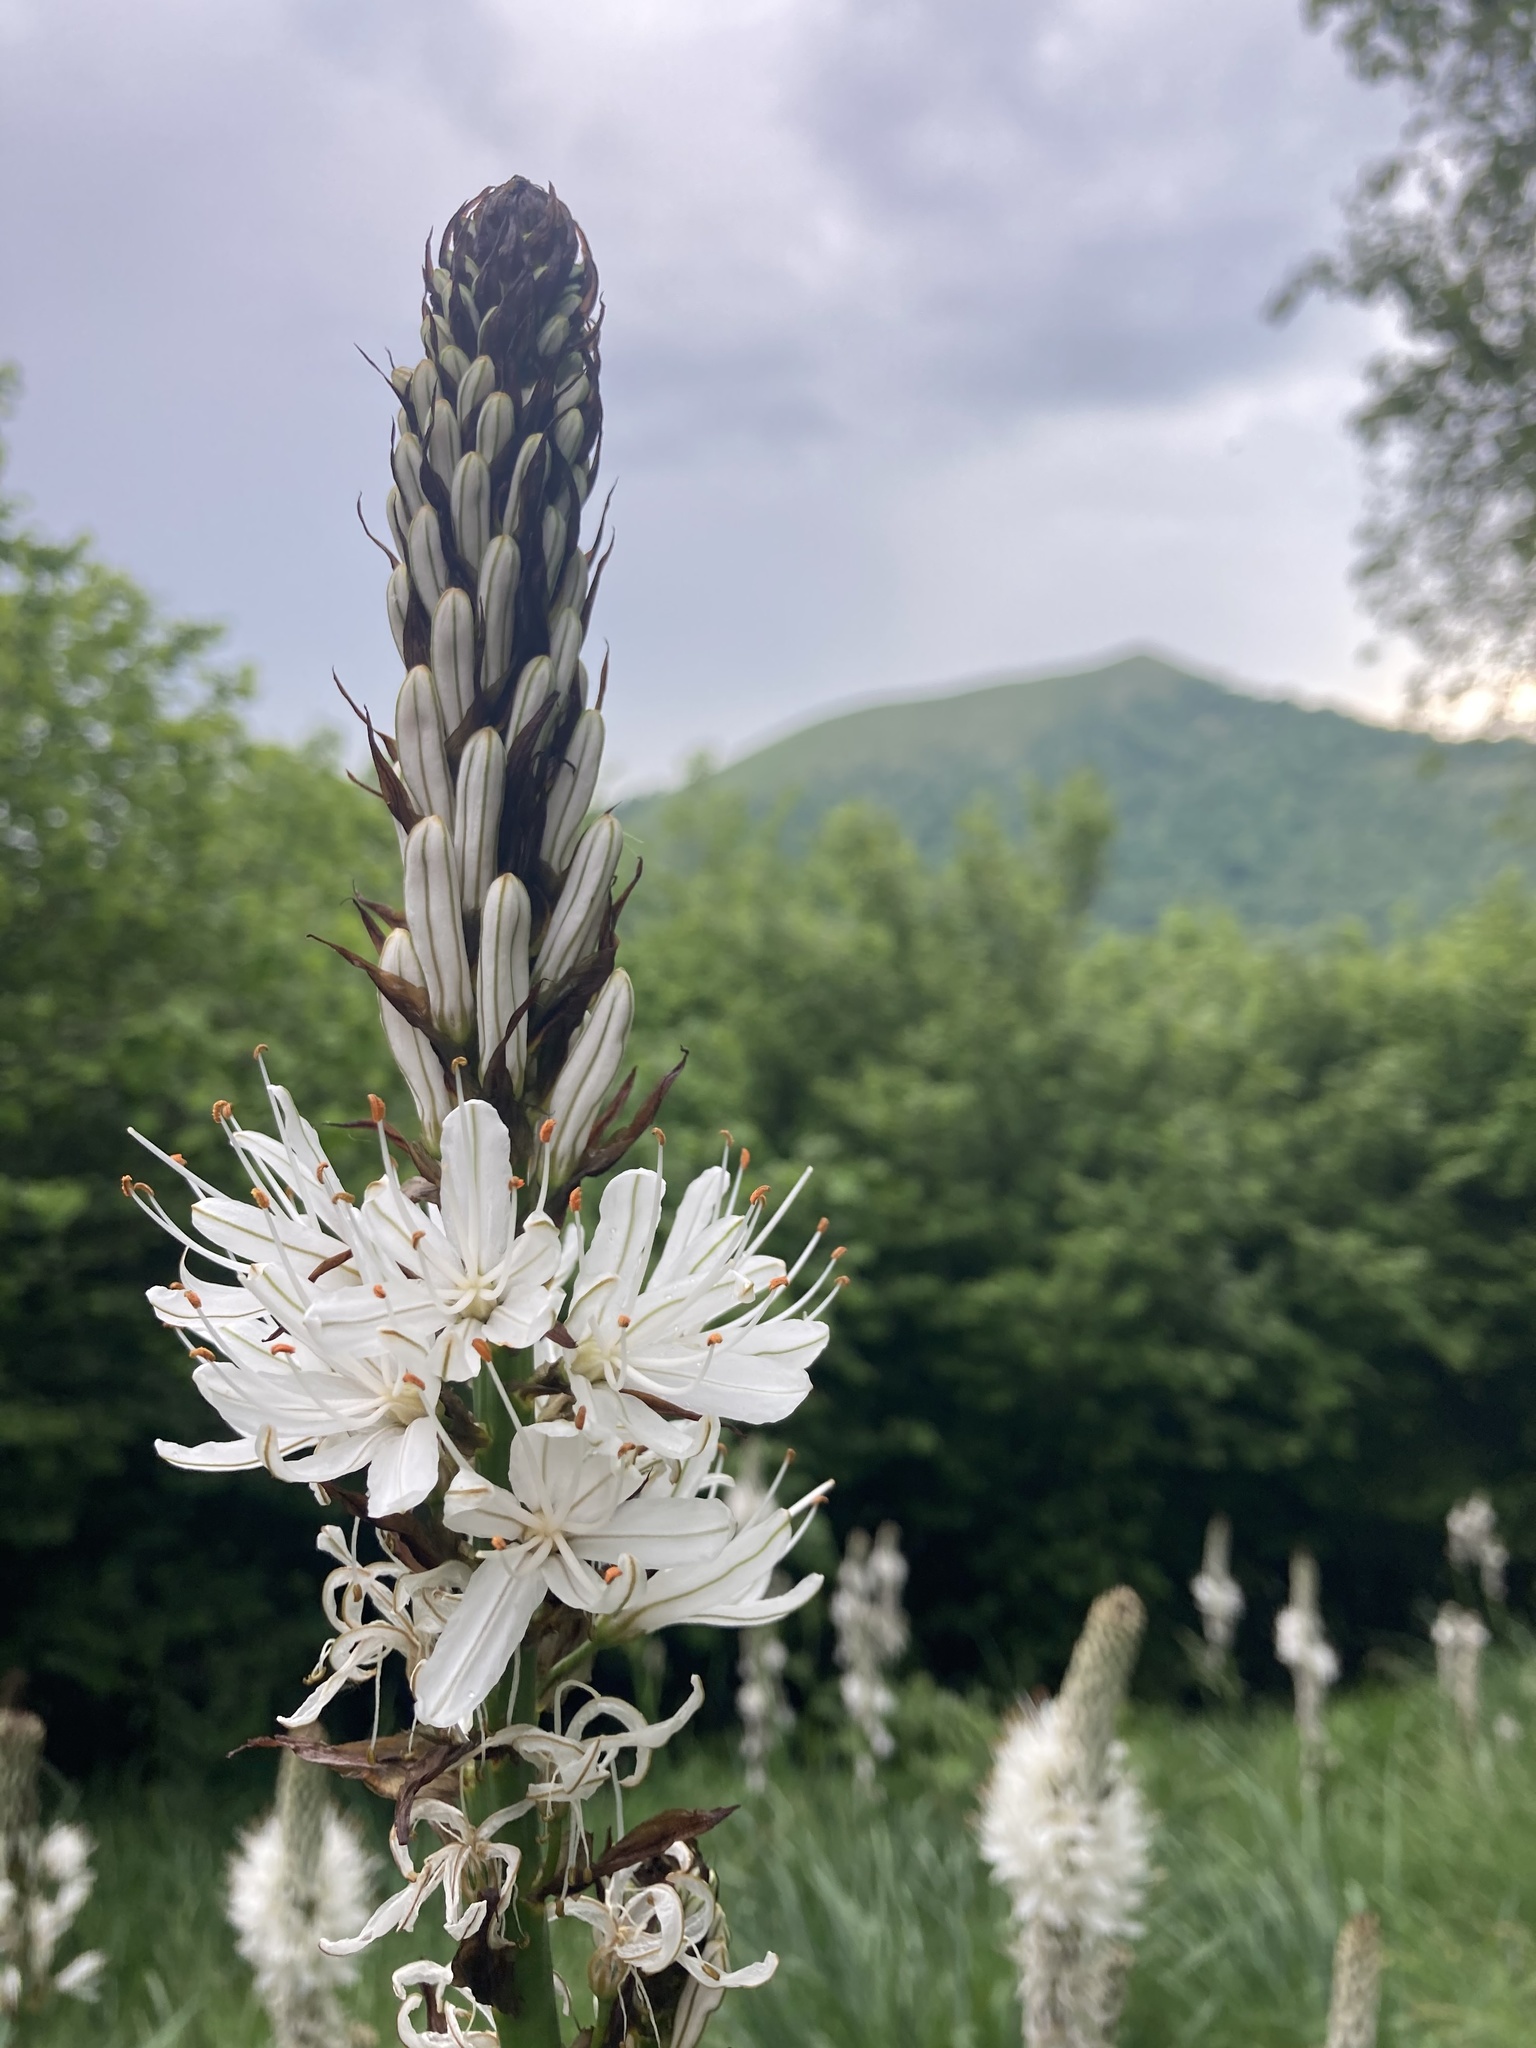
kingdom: Plantae
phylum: Tracheophyta
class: Liliopsida
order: Asparagales
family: Asphodelaceae
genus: Asphodelus
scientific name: Asphodelus albus
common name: White asphodel
